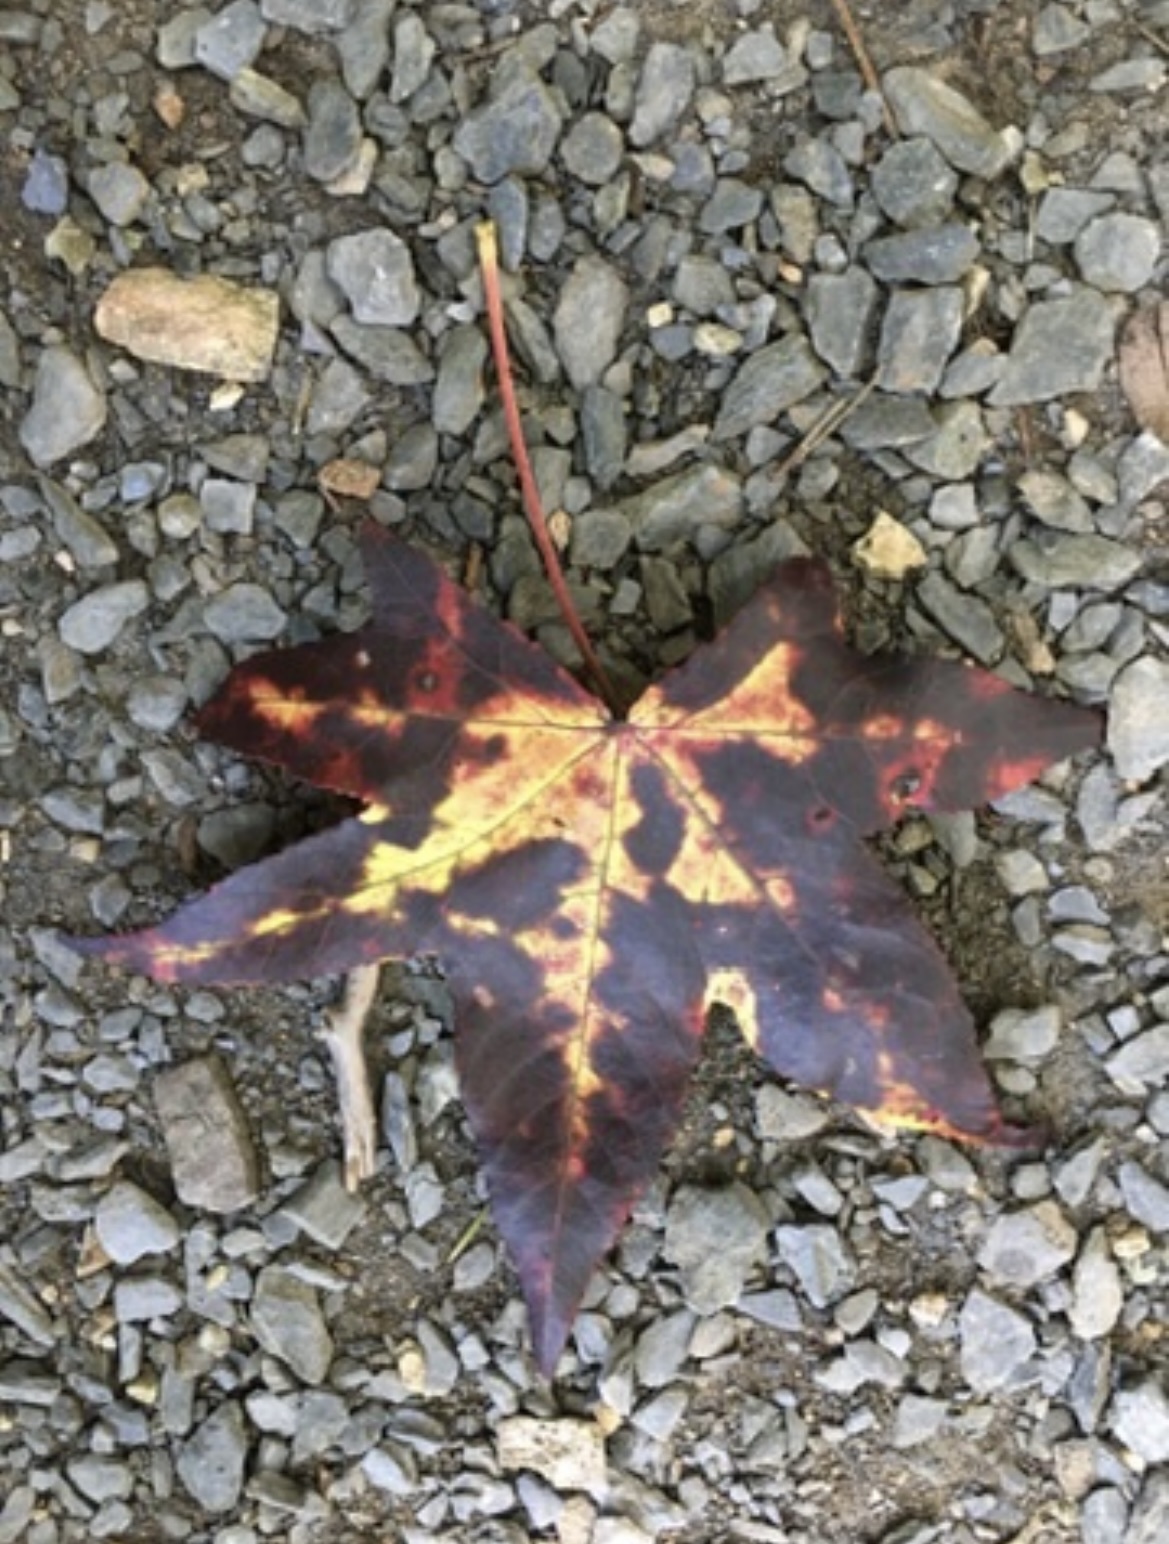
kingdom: Plantae
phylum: Tracheophyta
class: Magnoliopsida
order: Saxifragales
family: Altingiaceae
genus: Liquidambar
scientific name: Liquidambar styraciflua
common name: Sweet gum
